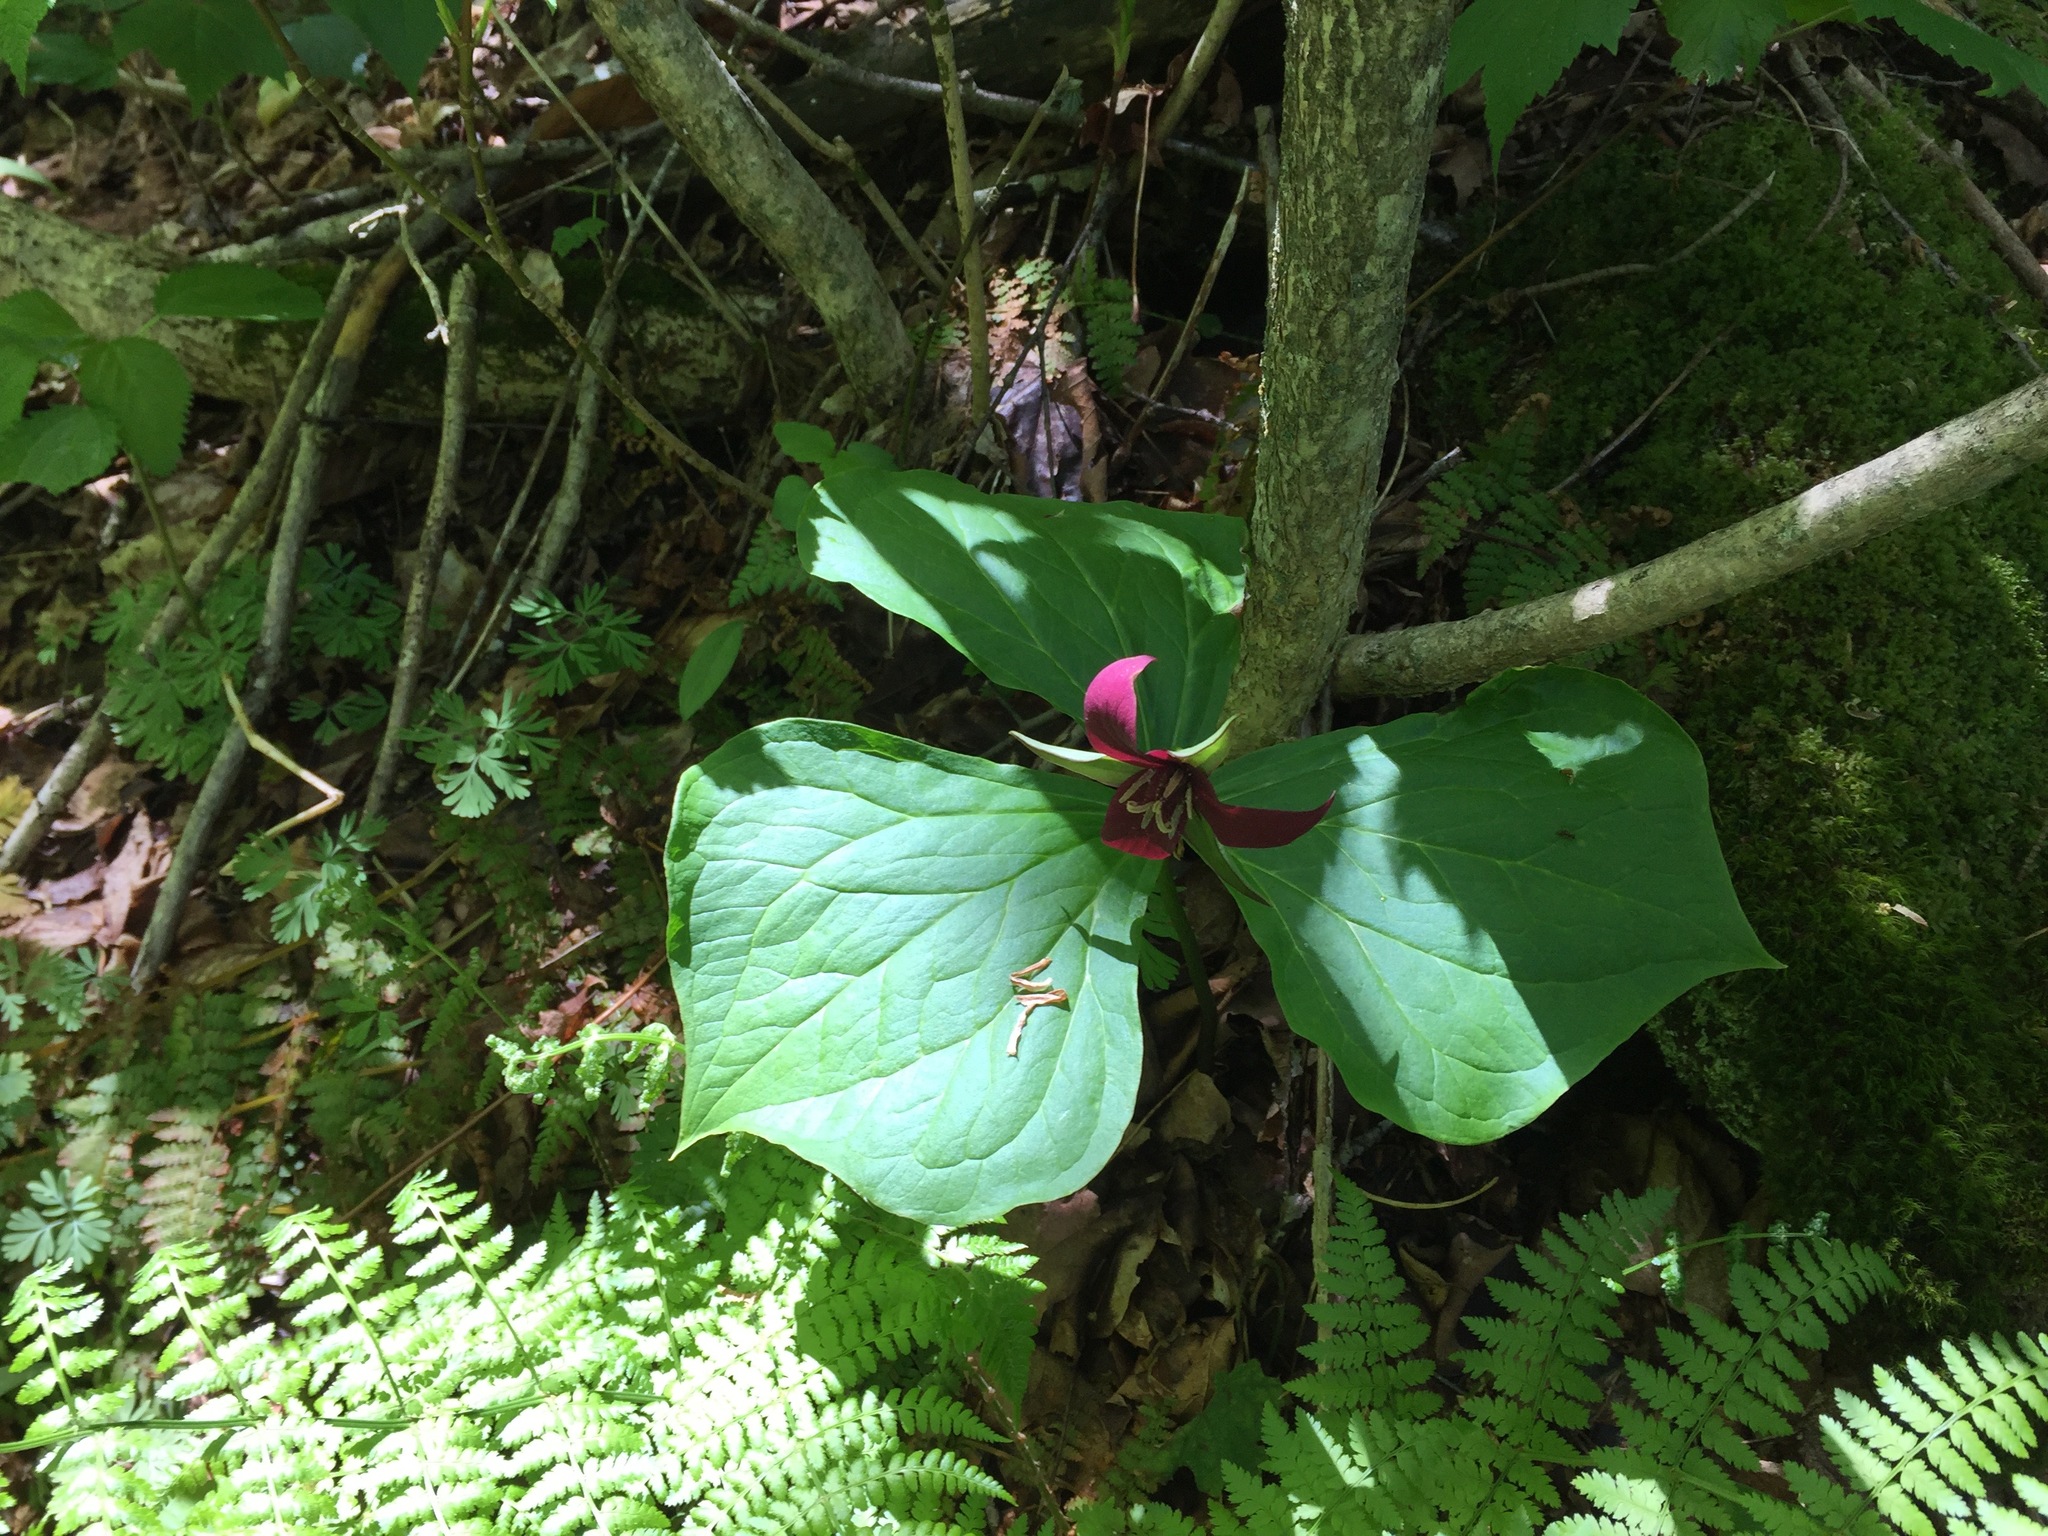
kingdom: Plantae
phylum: Tracheophyta
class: Liliopsida
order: Liliales
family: Melanthiaceae
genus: Trillium
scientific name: Trillium erectum
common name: Purple trillium
